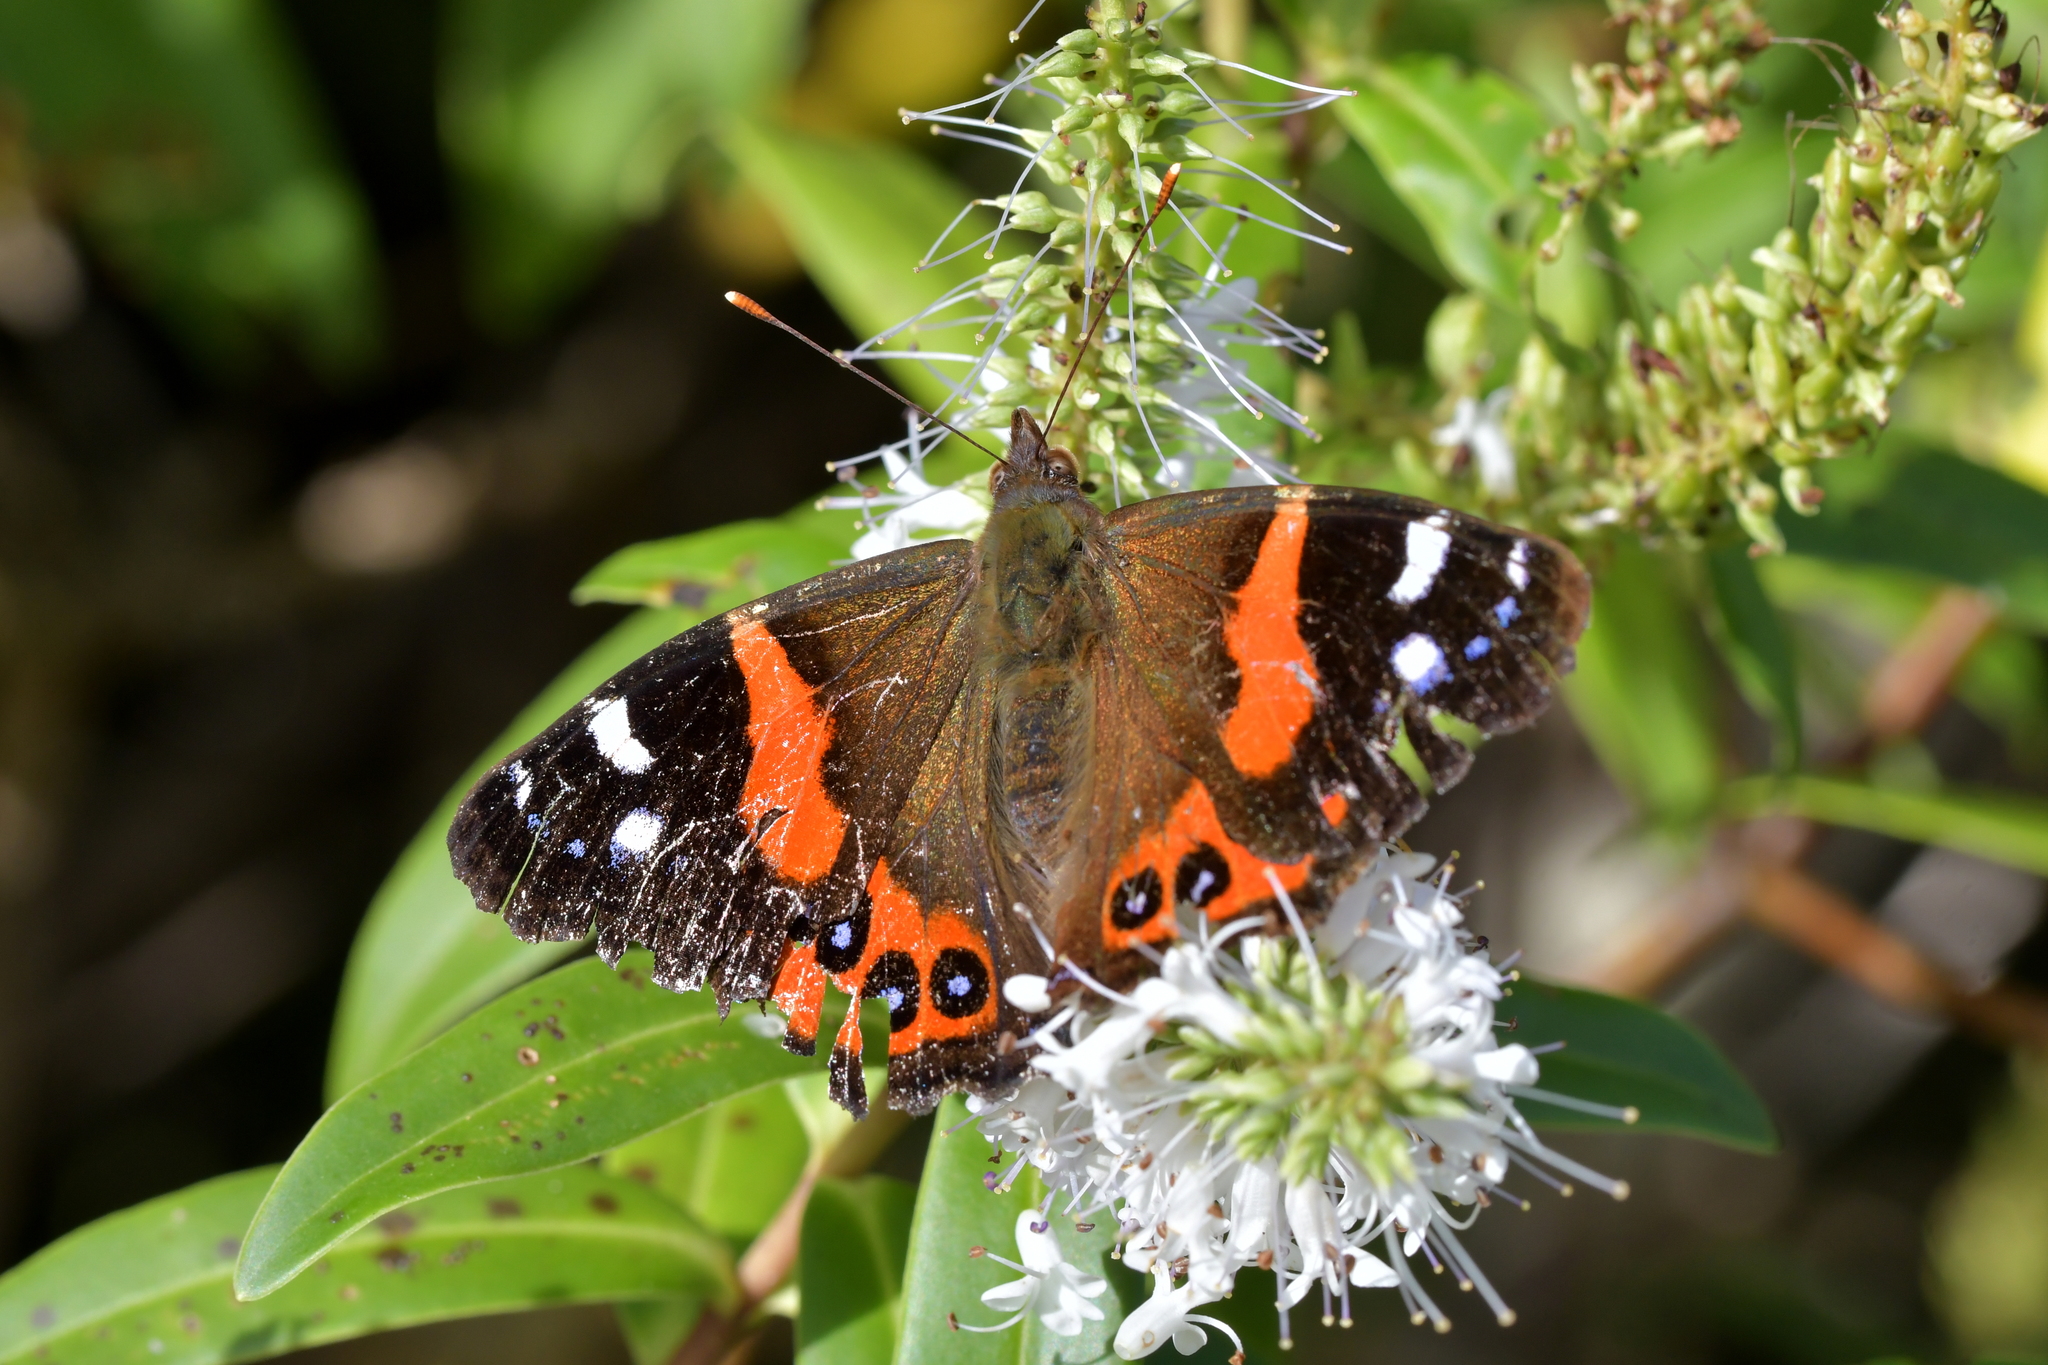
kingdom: Animalia
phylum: Arthropoda
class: Insecta
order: Lepidoptera
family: Nymphalidae
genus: Vanessa
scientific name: Vanessa gonerilla
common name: New zealand red admiral
